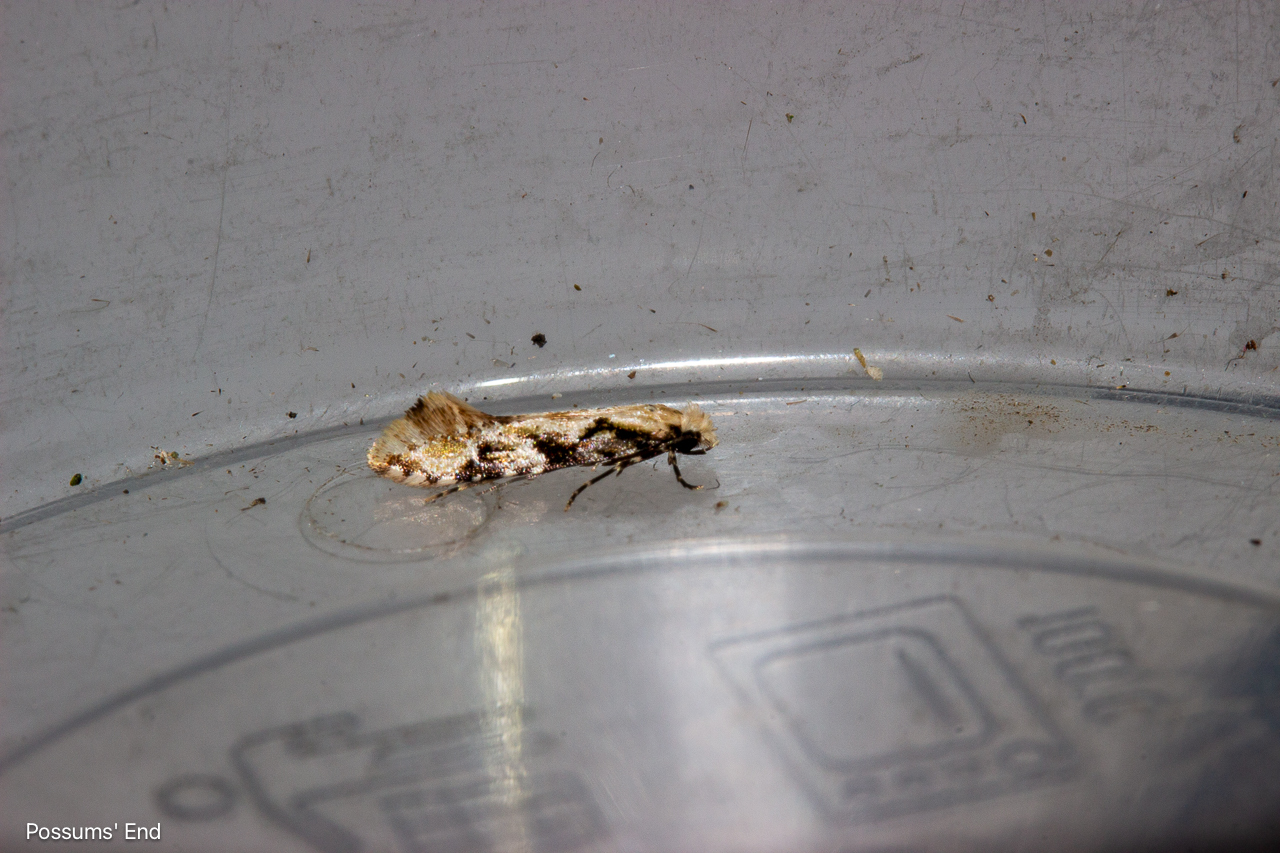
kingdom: Animalia
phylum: Arthropoda
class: Insecta
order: Lepidoptera
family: Tineidae
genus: Crypsitricha
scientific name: Crypsitricha mesotypa
